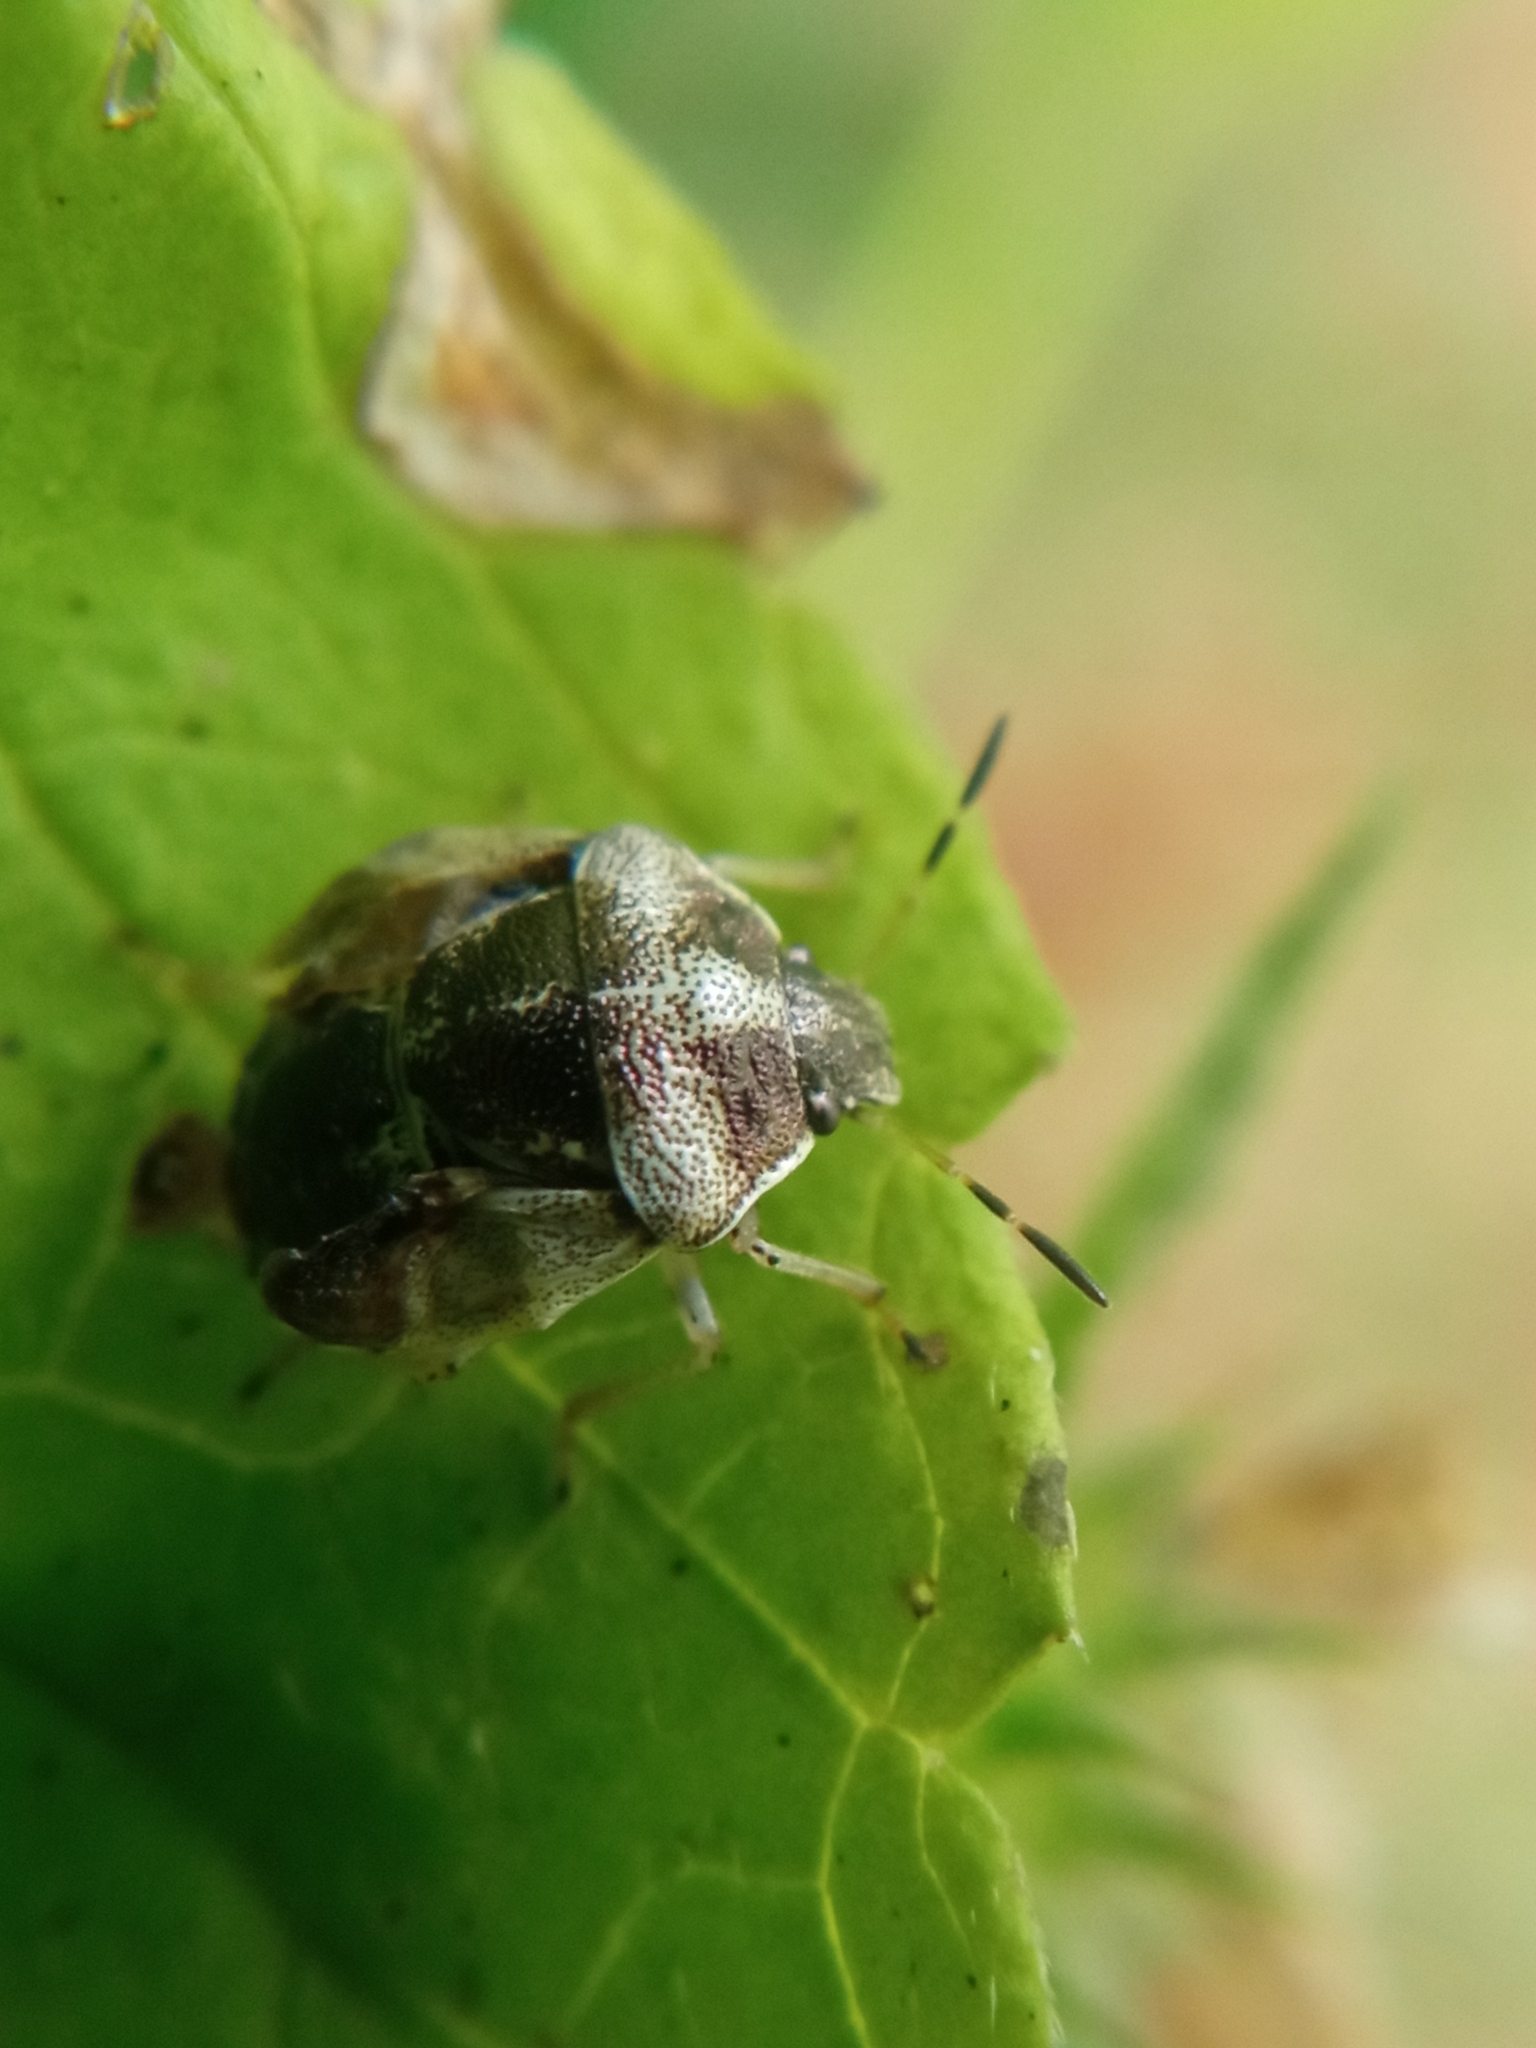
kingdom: Animalia
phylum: Arthropoda
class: Insecta
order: Hemiptera
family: Pentatomidae
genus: Eysarcoris
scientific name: Eysarcoris venustissimus
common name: Woundwort shieldbug
